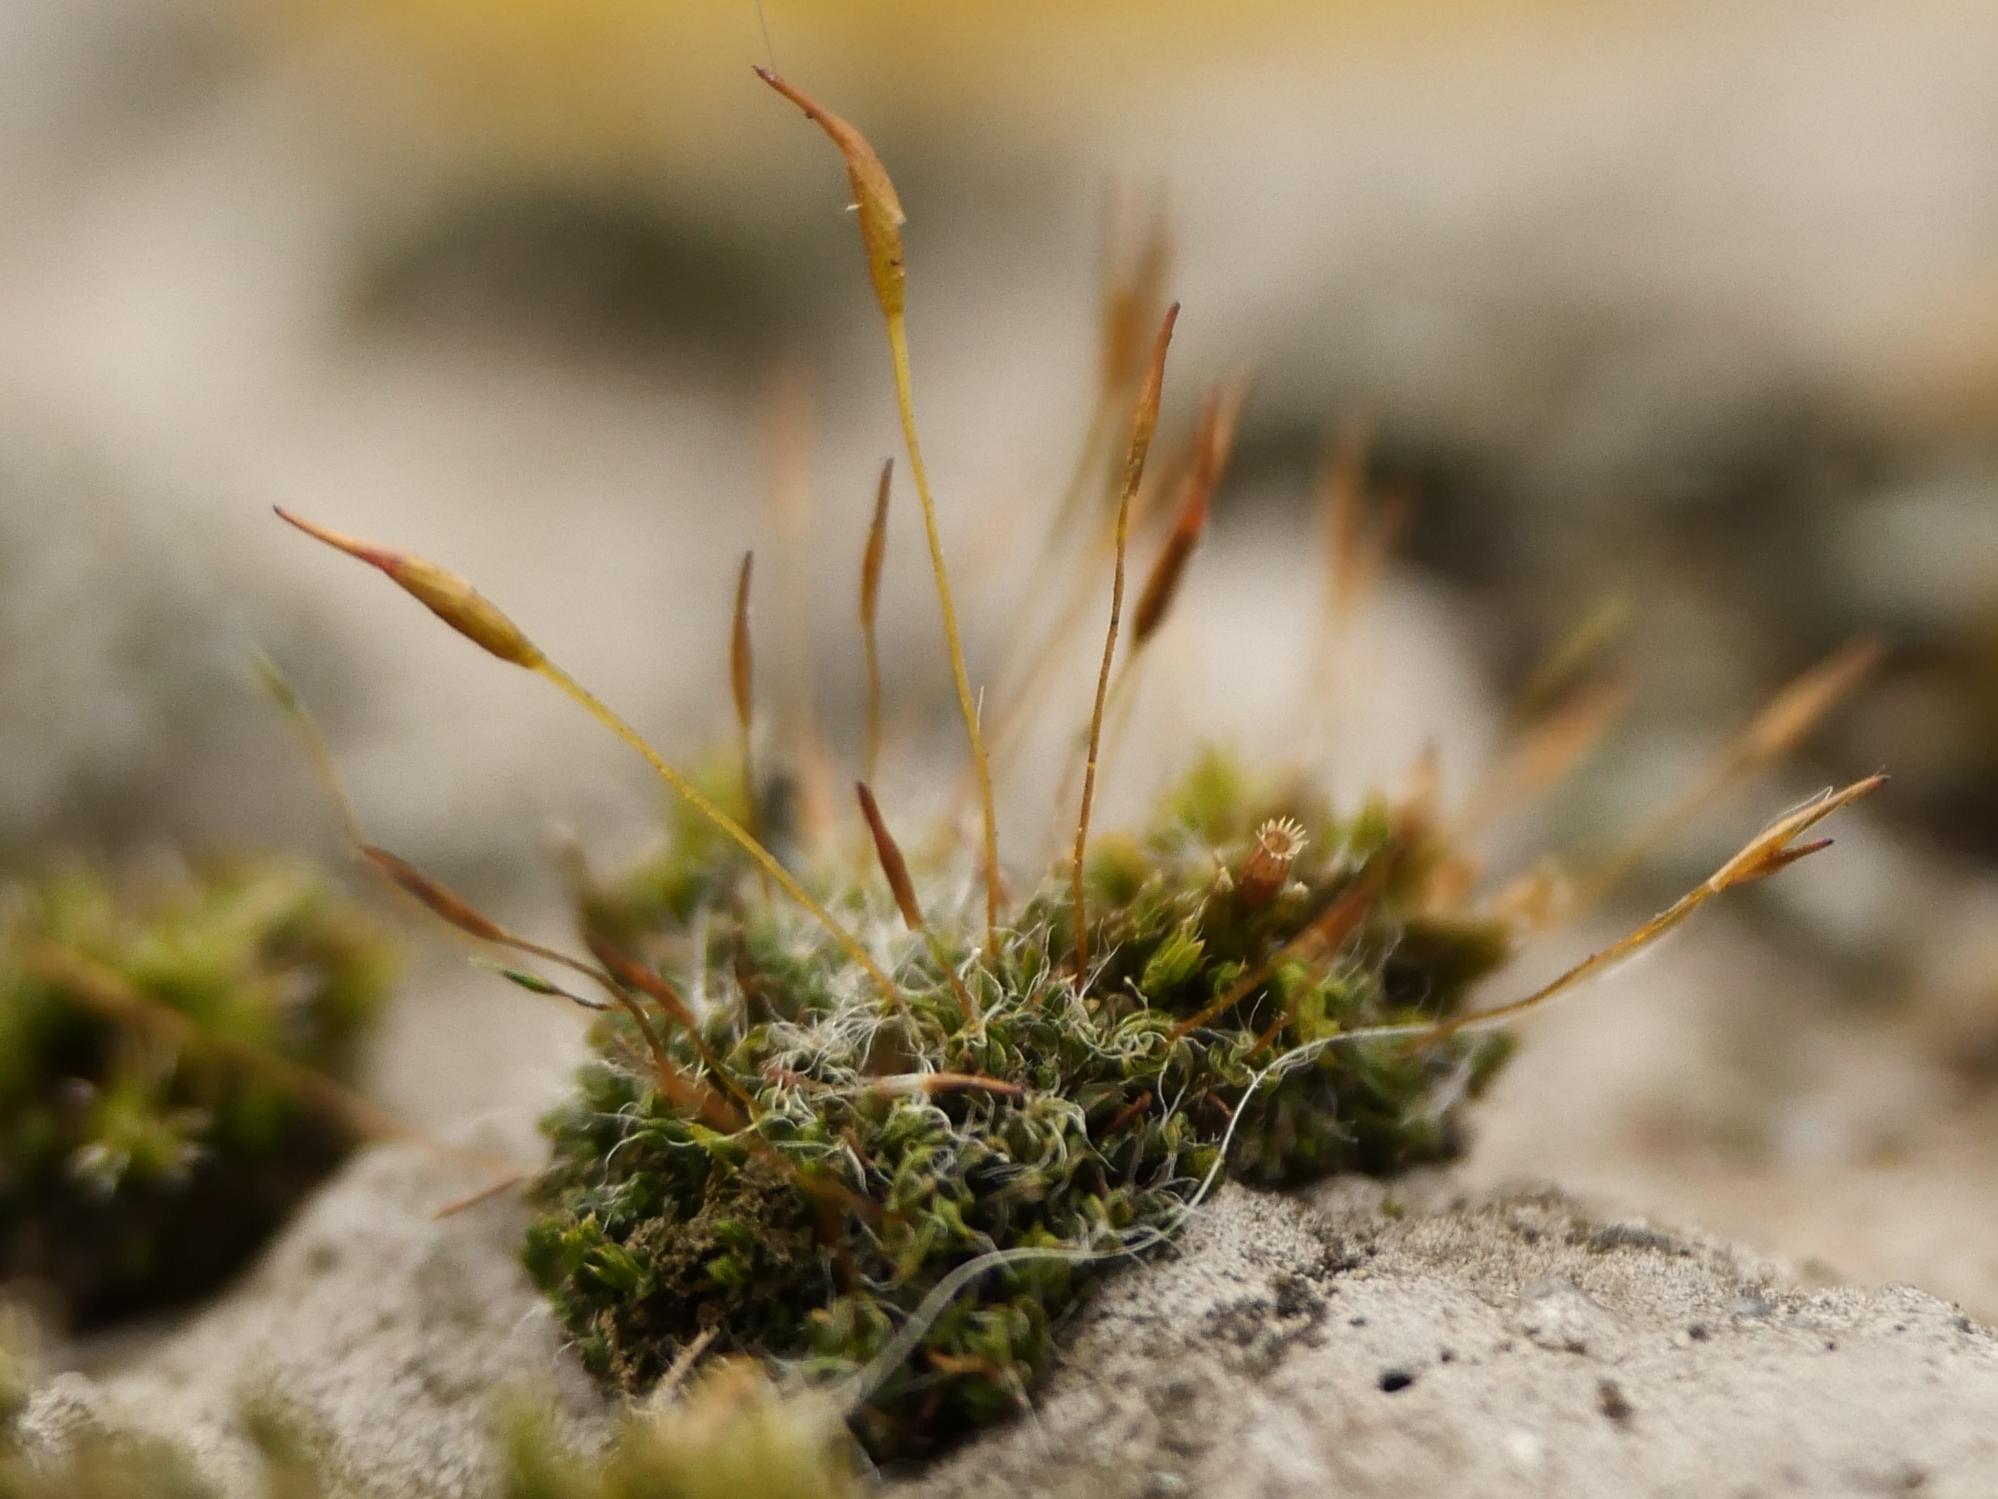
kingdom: Plantae
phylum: Bryophyta
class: Bryopsida
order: Pottiales
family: Pottiaceae
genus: Tortula
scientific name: Tortula muralis
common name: Wall screw-moss
